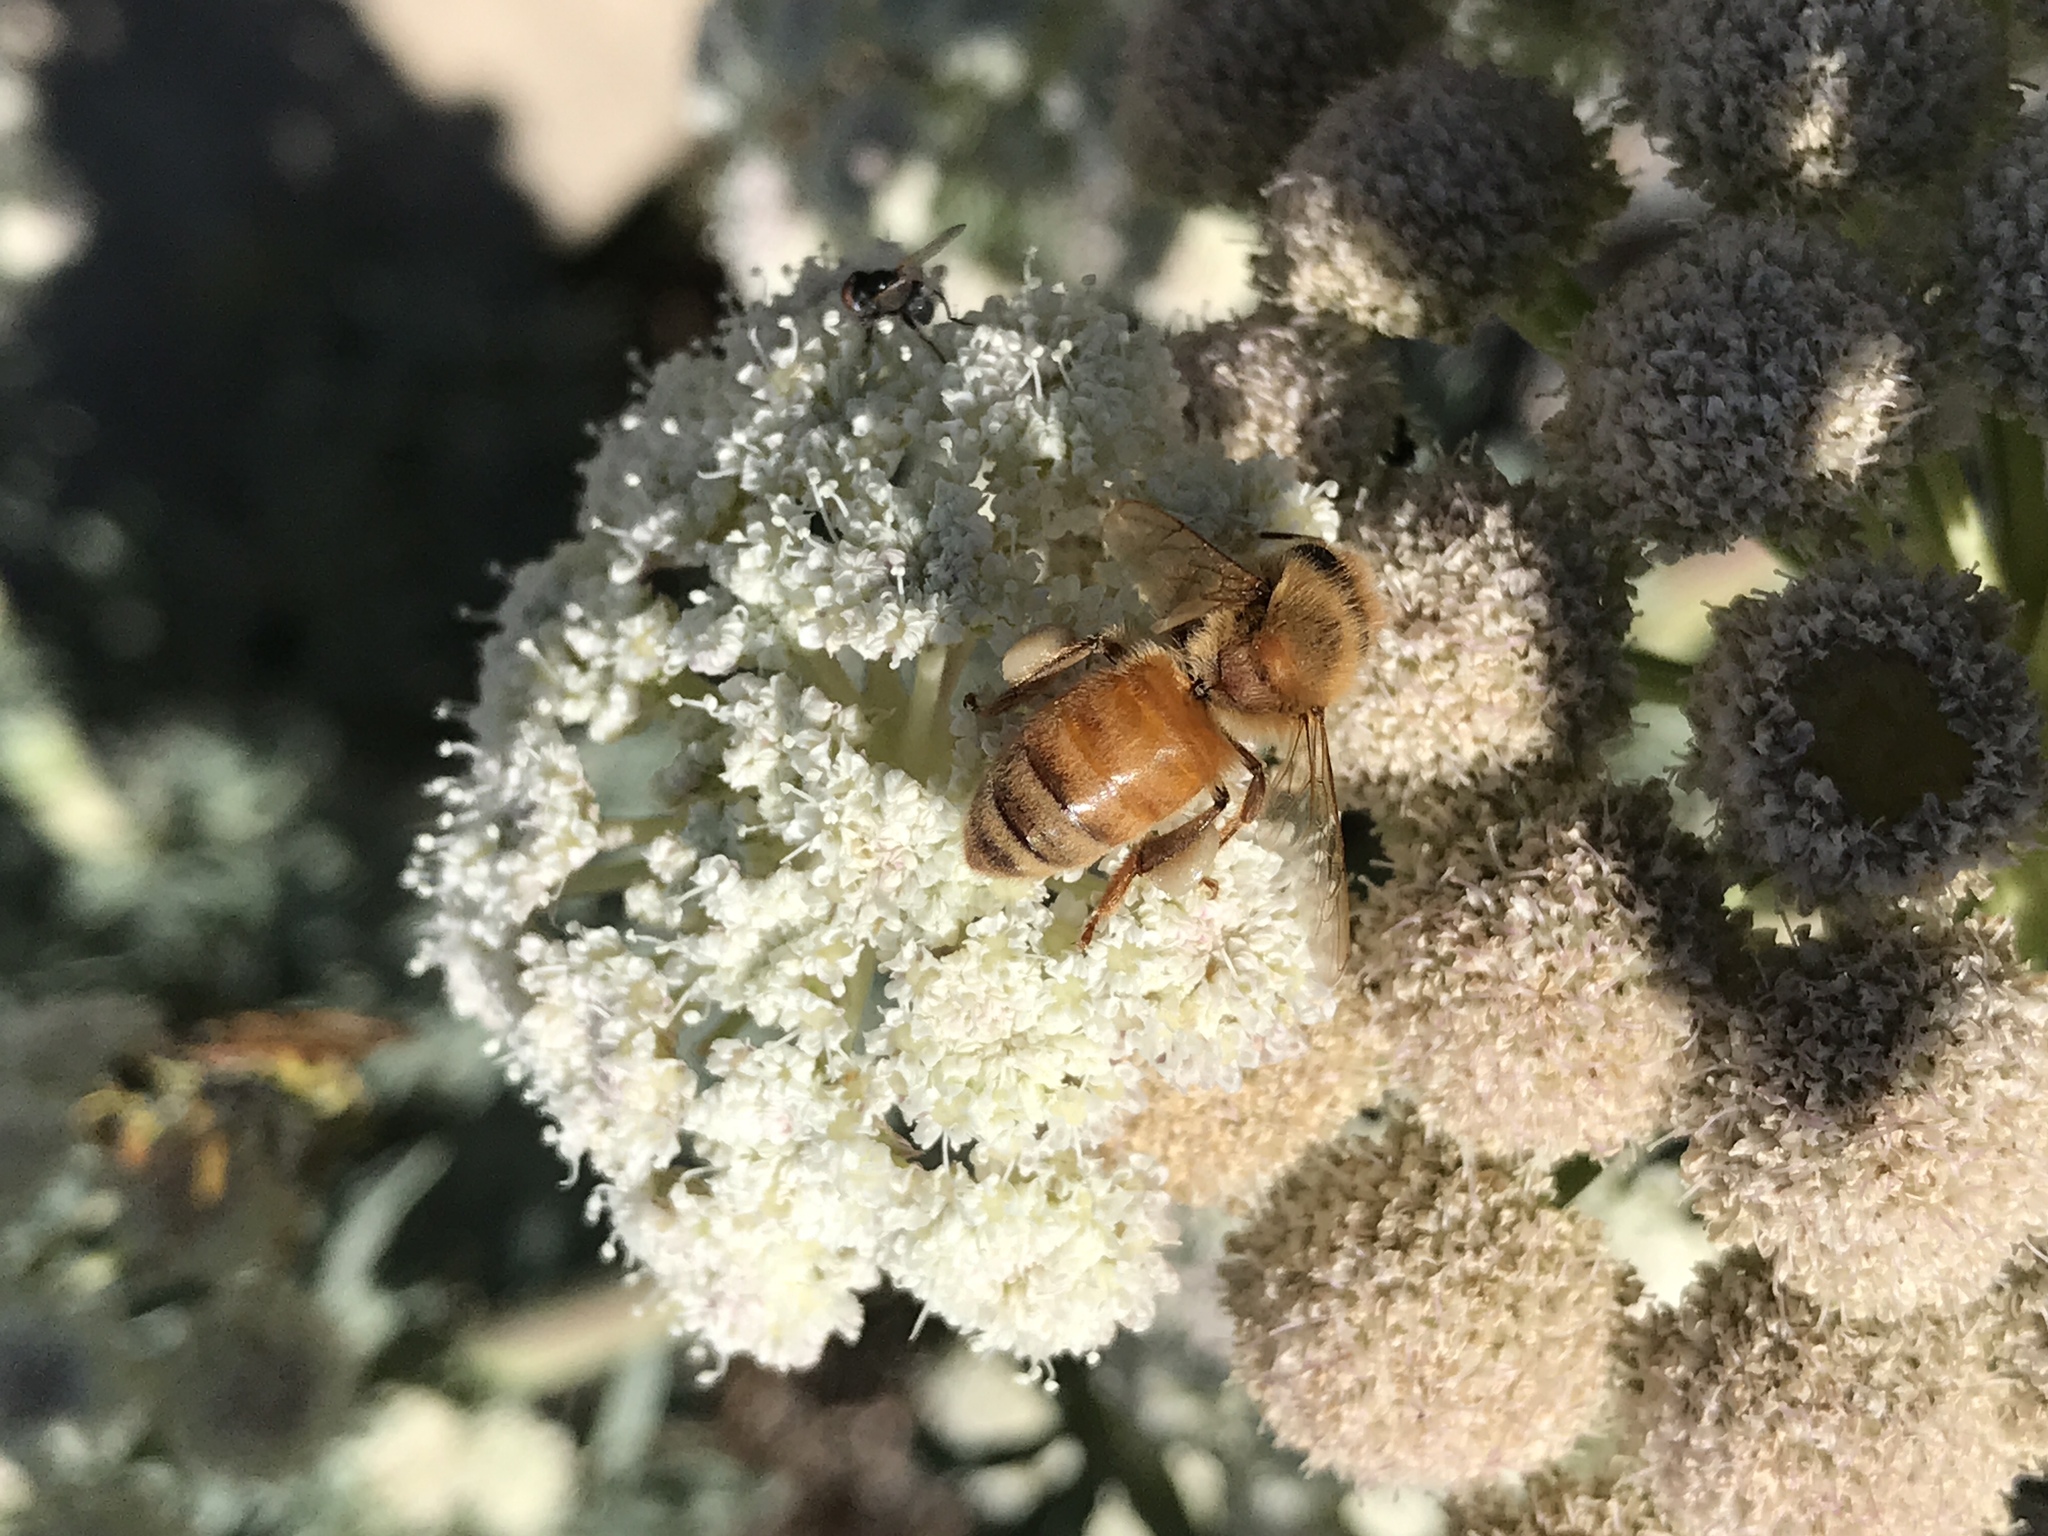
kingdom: Animalia
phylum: Arthropoda
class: Insecta
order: Hymenoptera
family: Apidae
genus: Apis
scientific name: Apis mellifera
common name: Honey bee
